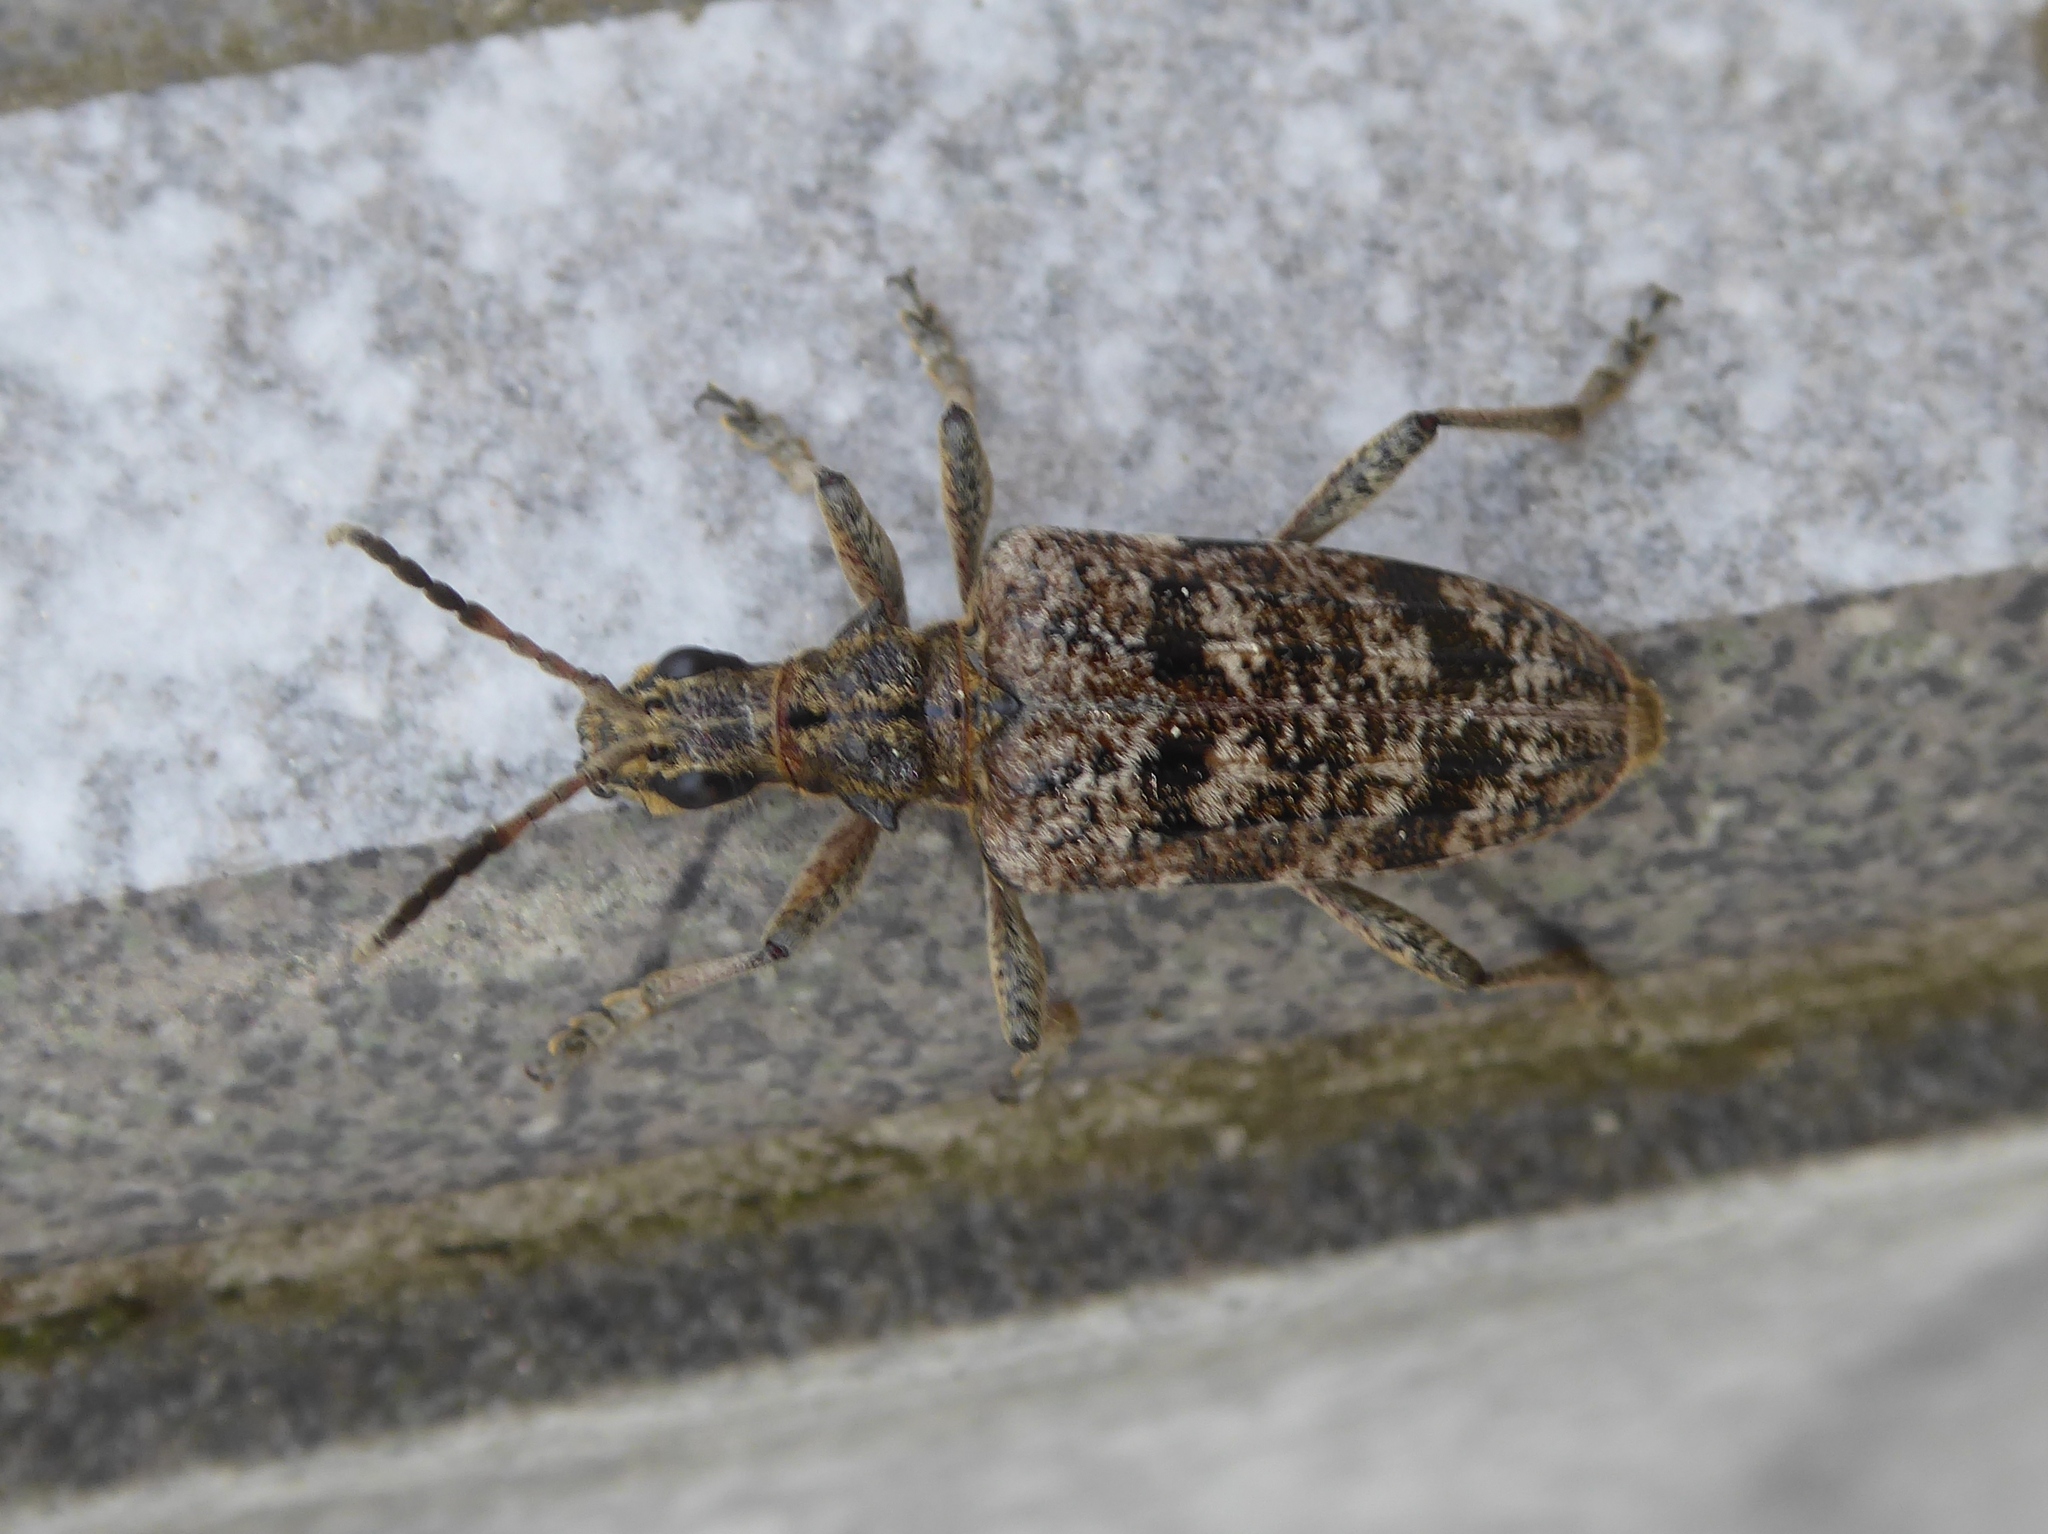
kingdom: Animalia
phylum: Arthropoda
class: Insecta
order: Coleoptera
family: Cerambycidae
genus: Rhagium
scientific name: Rhagium inquisitor
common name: Ribbed pine borer
